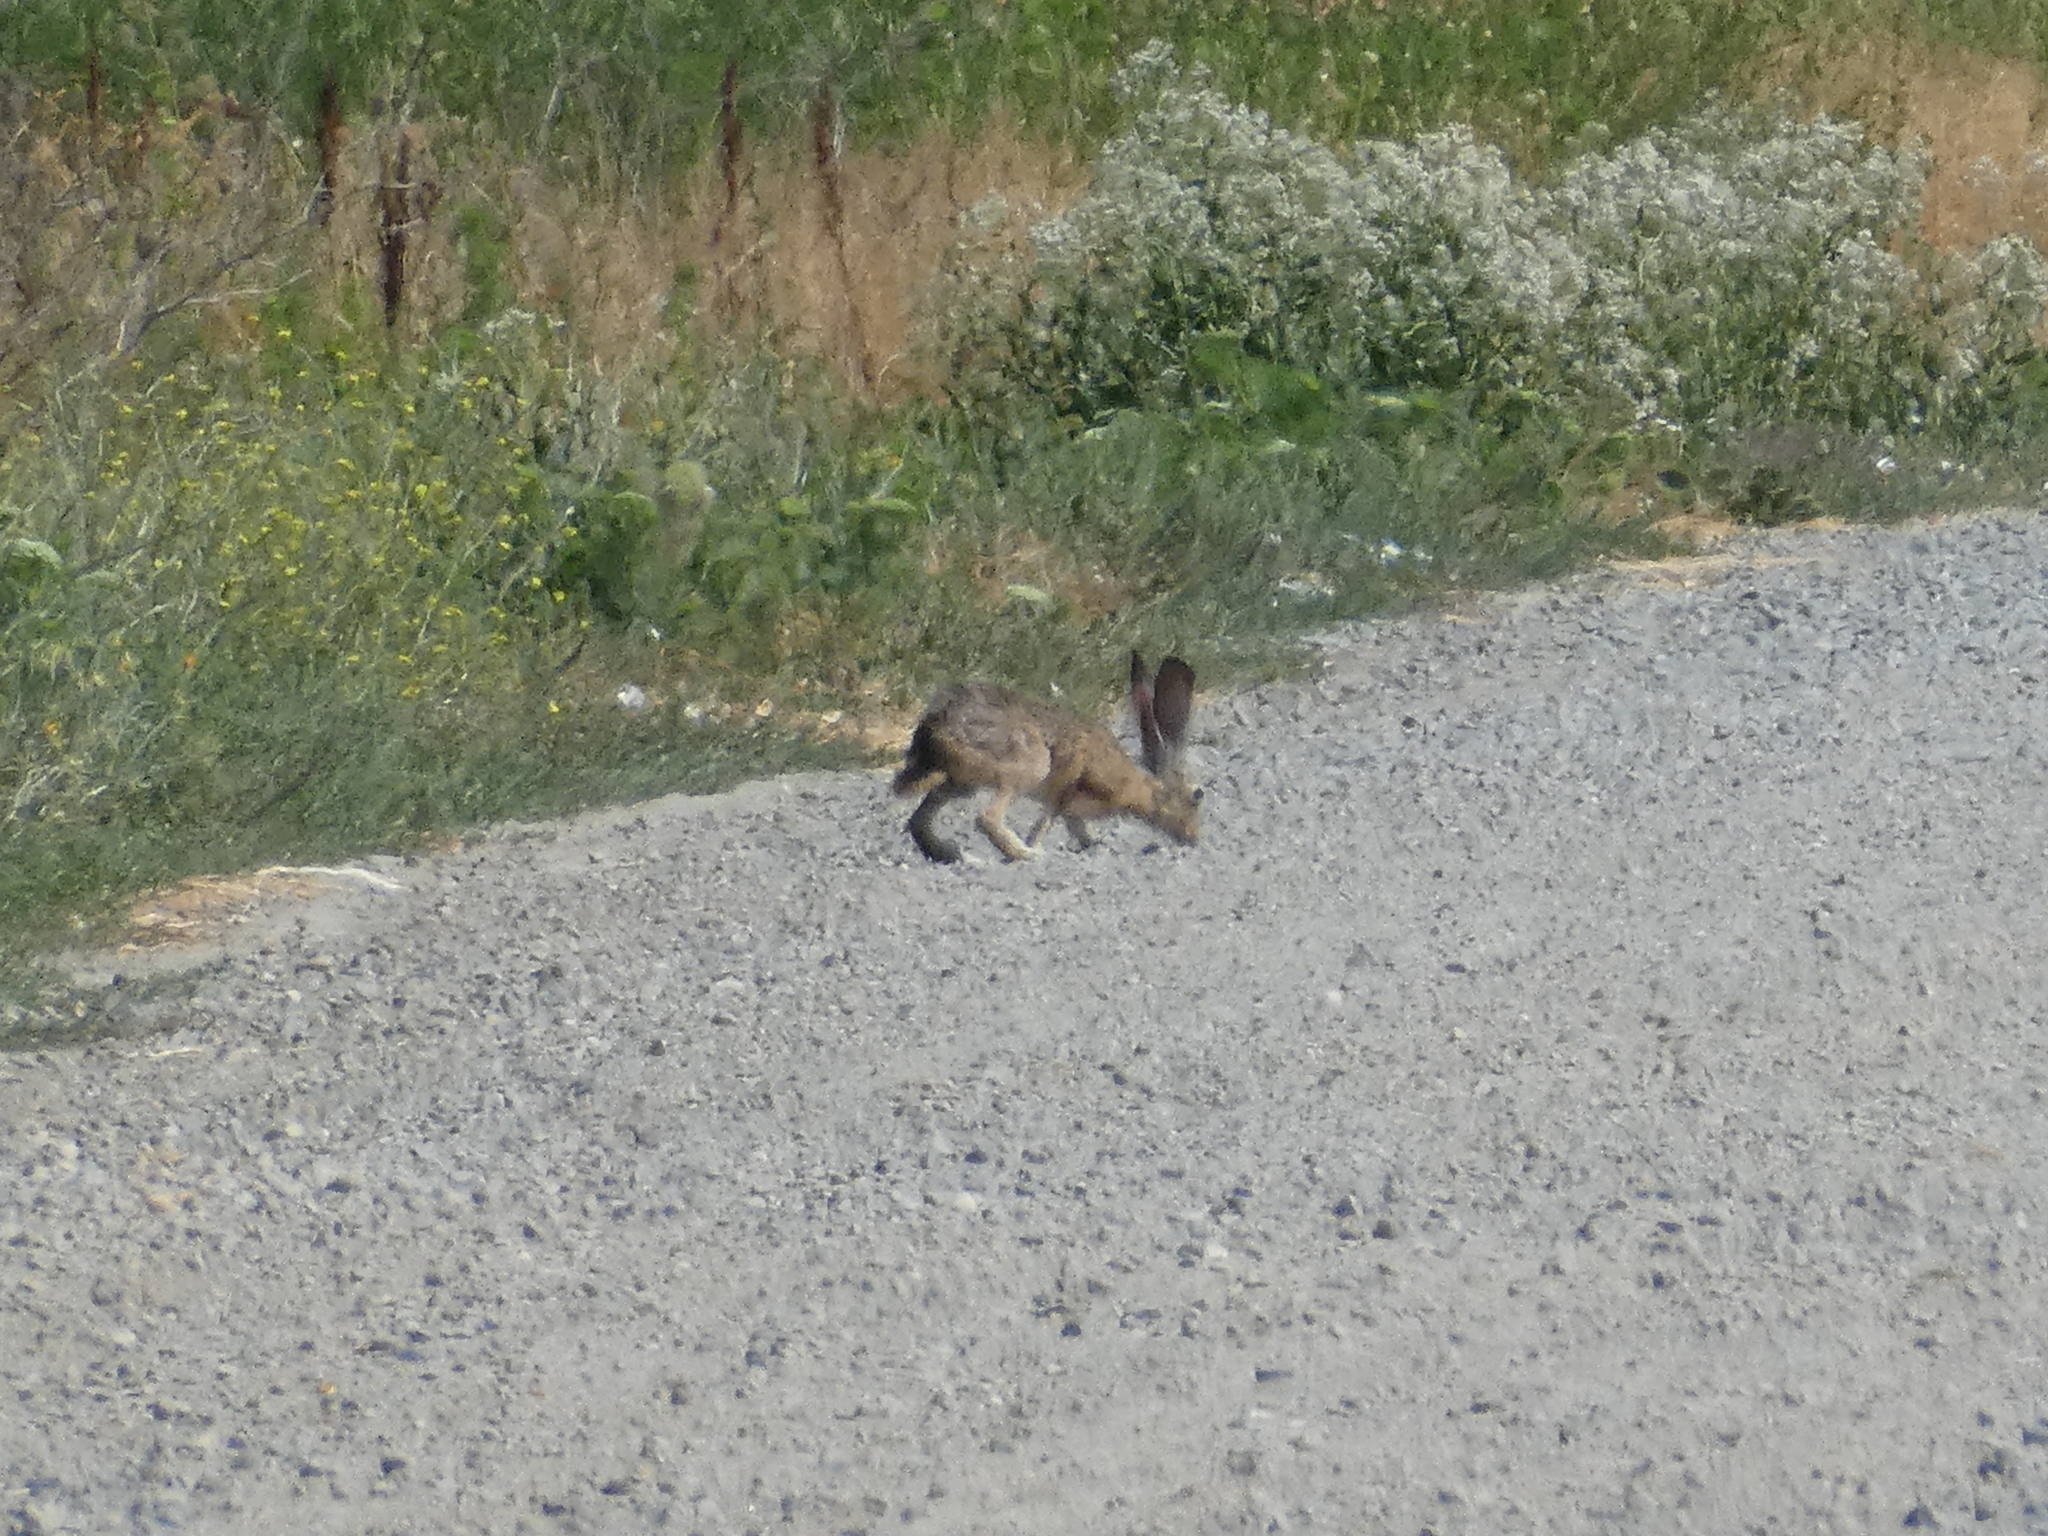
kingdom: Animalia
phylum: Chordata
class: Mammalia
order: Lagomorpha
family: Leporidae
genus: Lepus
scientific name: Lepus californicus
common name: Black-tailed jackrabbit
